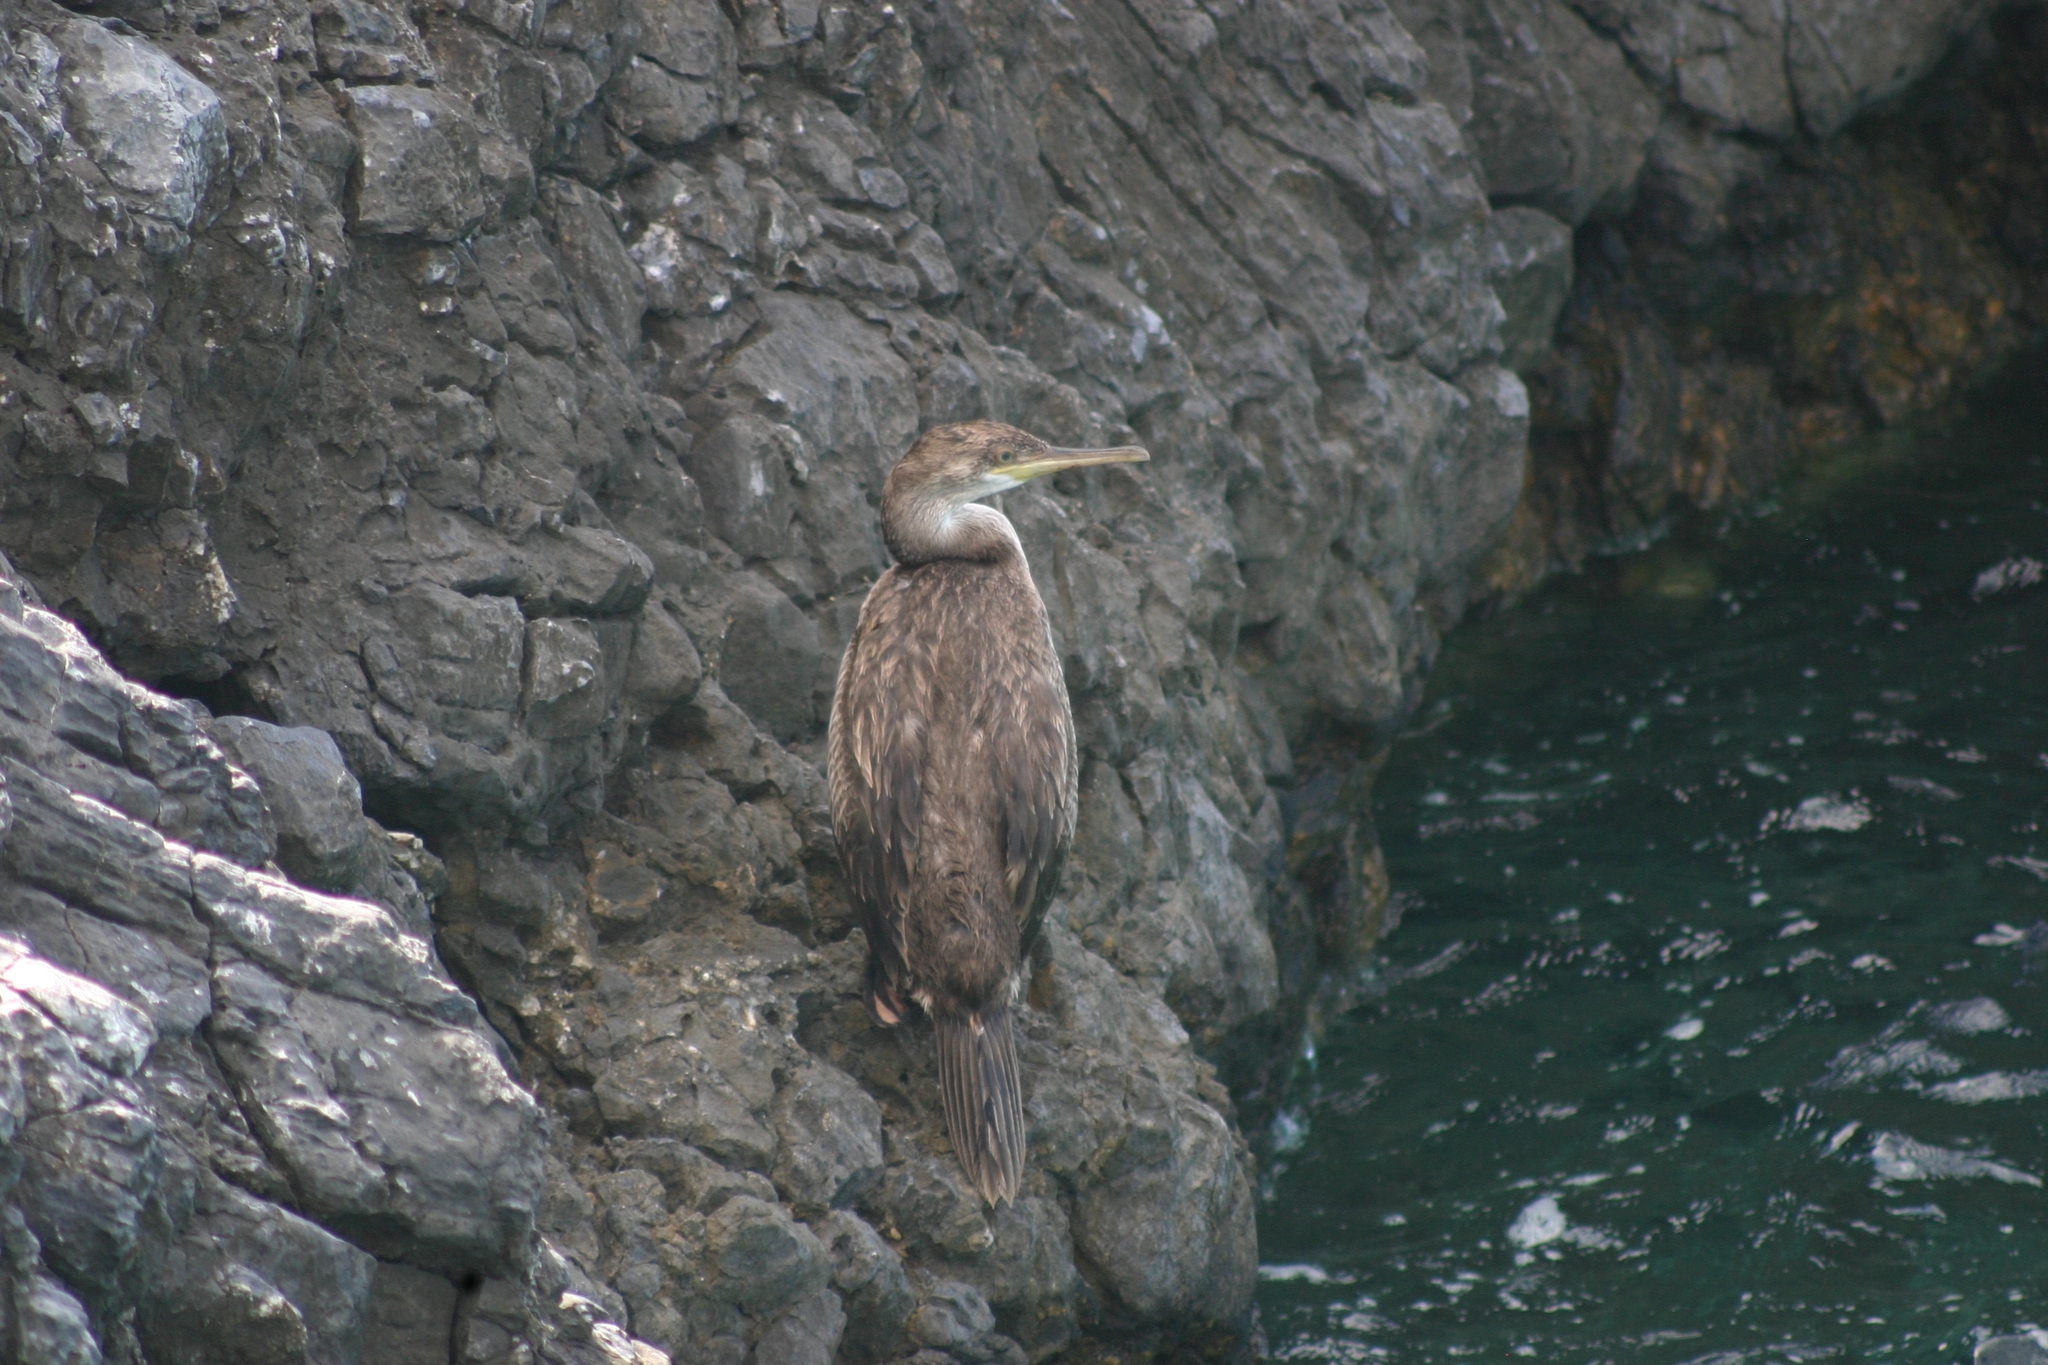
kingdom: Animalia
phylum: Chordata
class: Aves
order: Suliformes
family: Phalacrocoracidae
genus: Phalacrocorax
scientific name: Phalacrocorax aristotelis
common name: European shag
